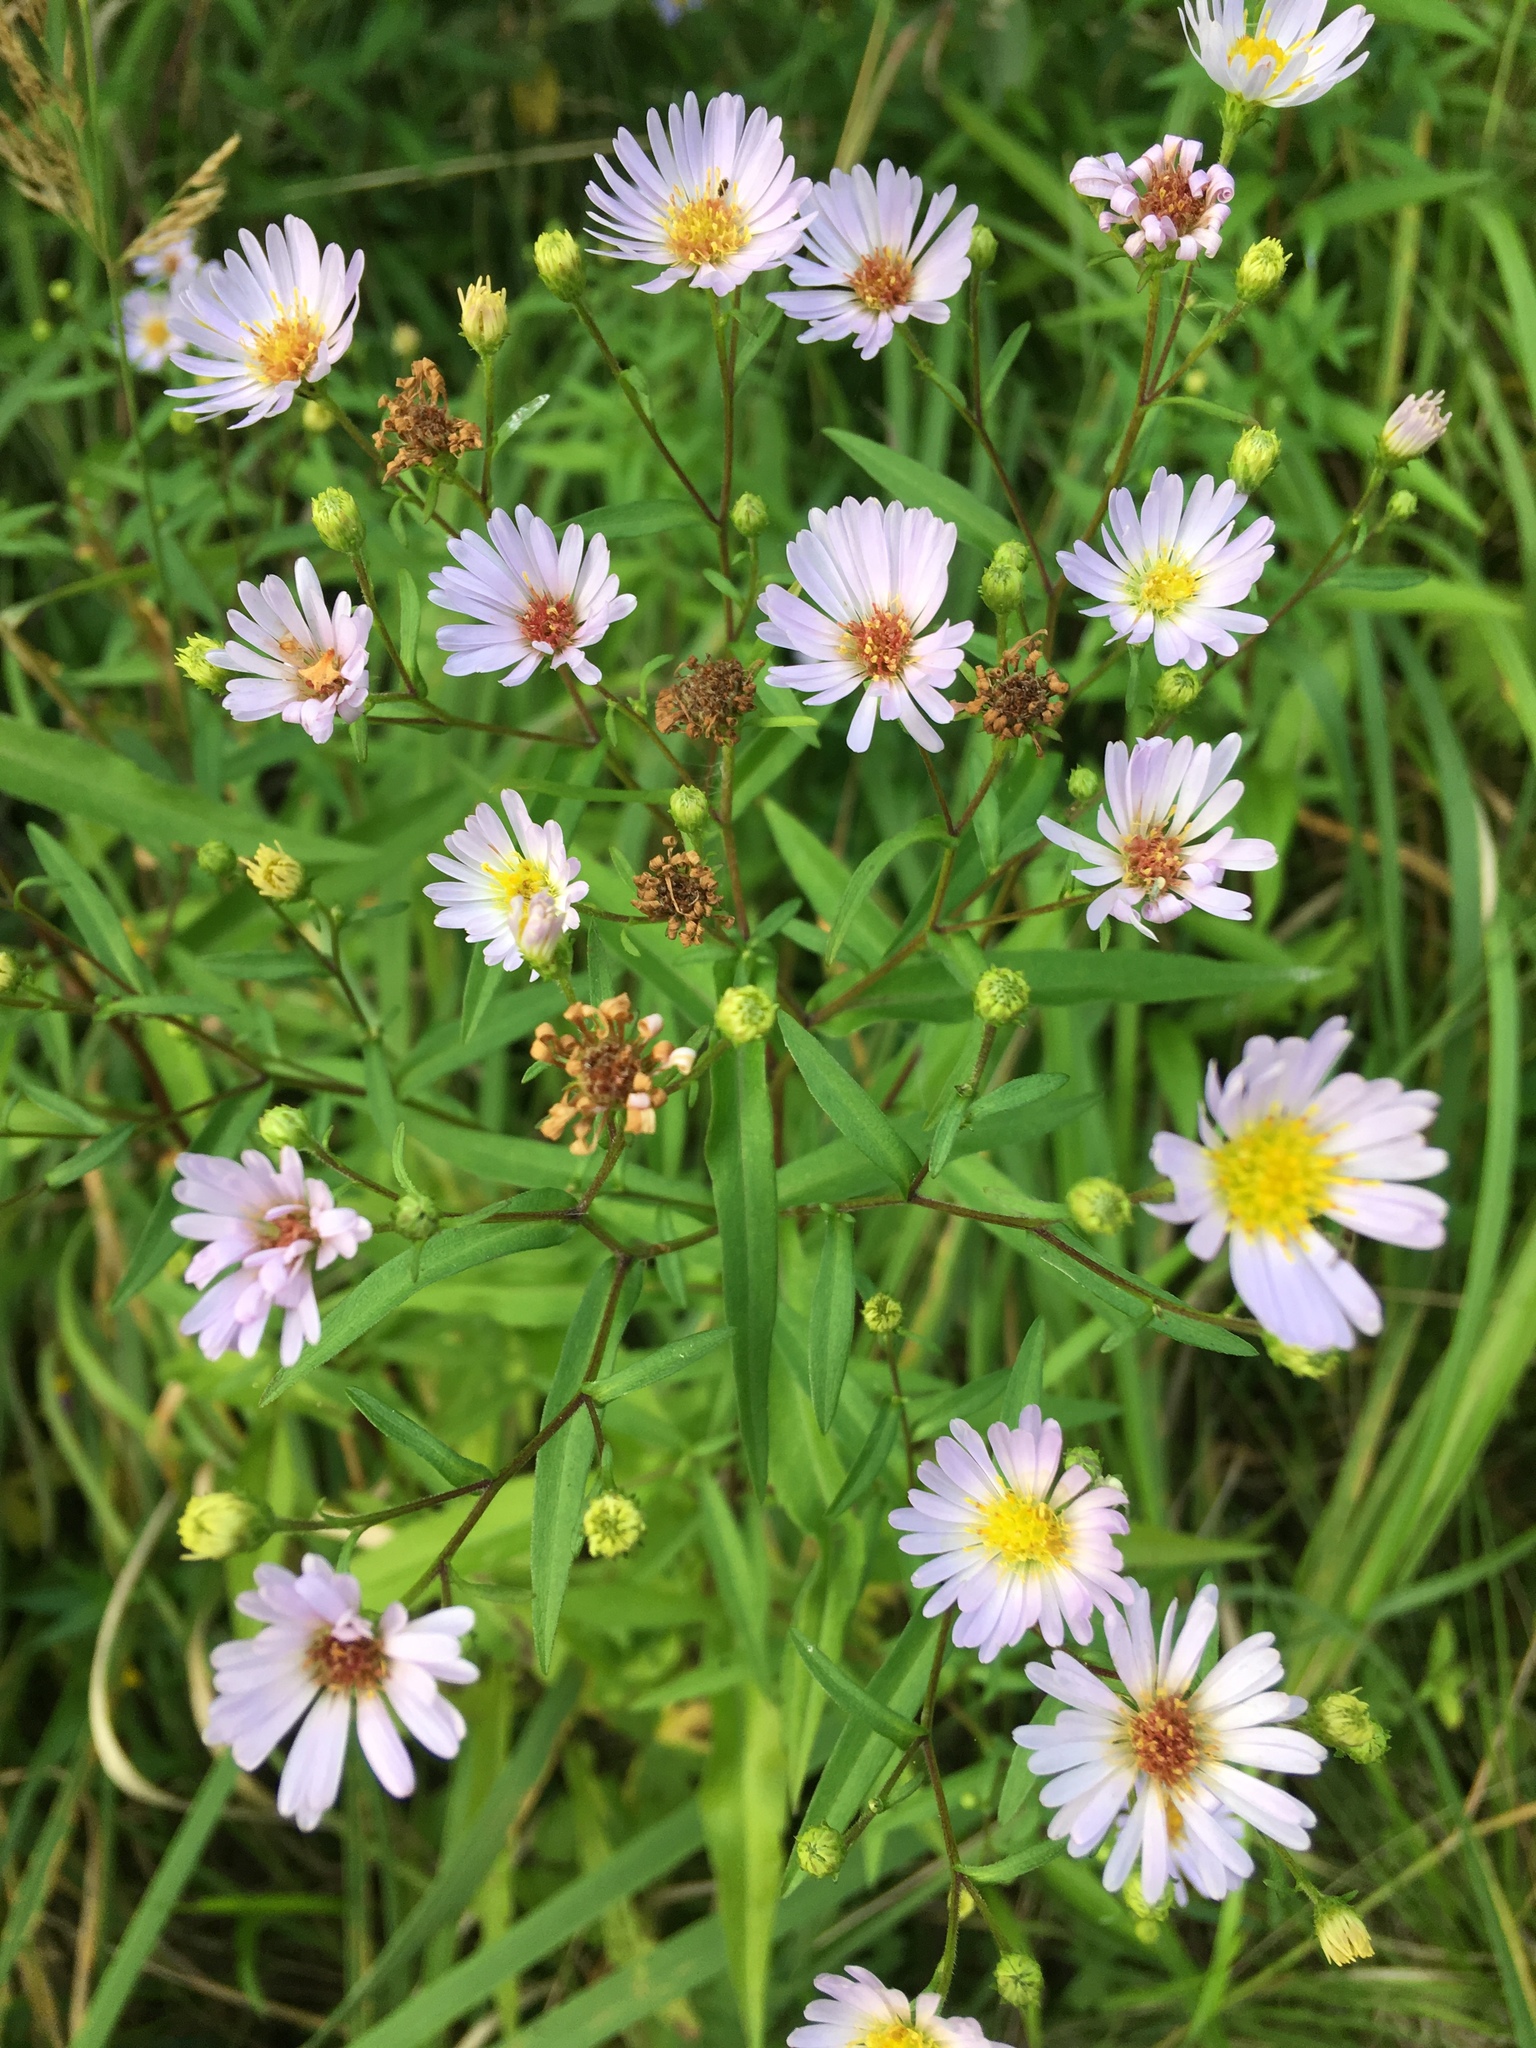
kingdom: Plantae
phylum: Tracheophyta
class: Magnoliopsida
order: Asterales
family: Asteraceae
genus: Symphyotrichum
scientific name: Symphyotrichum salignum
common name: Common michaelmas daisy
